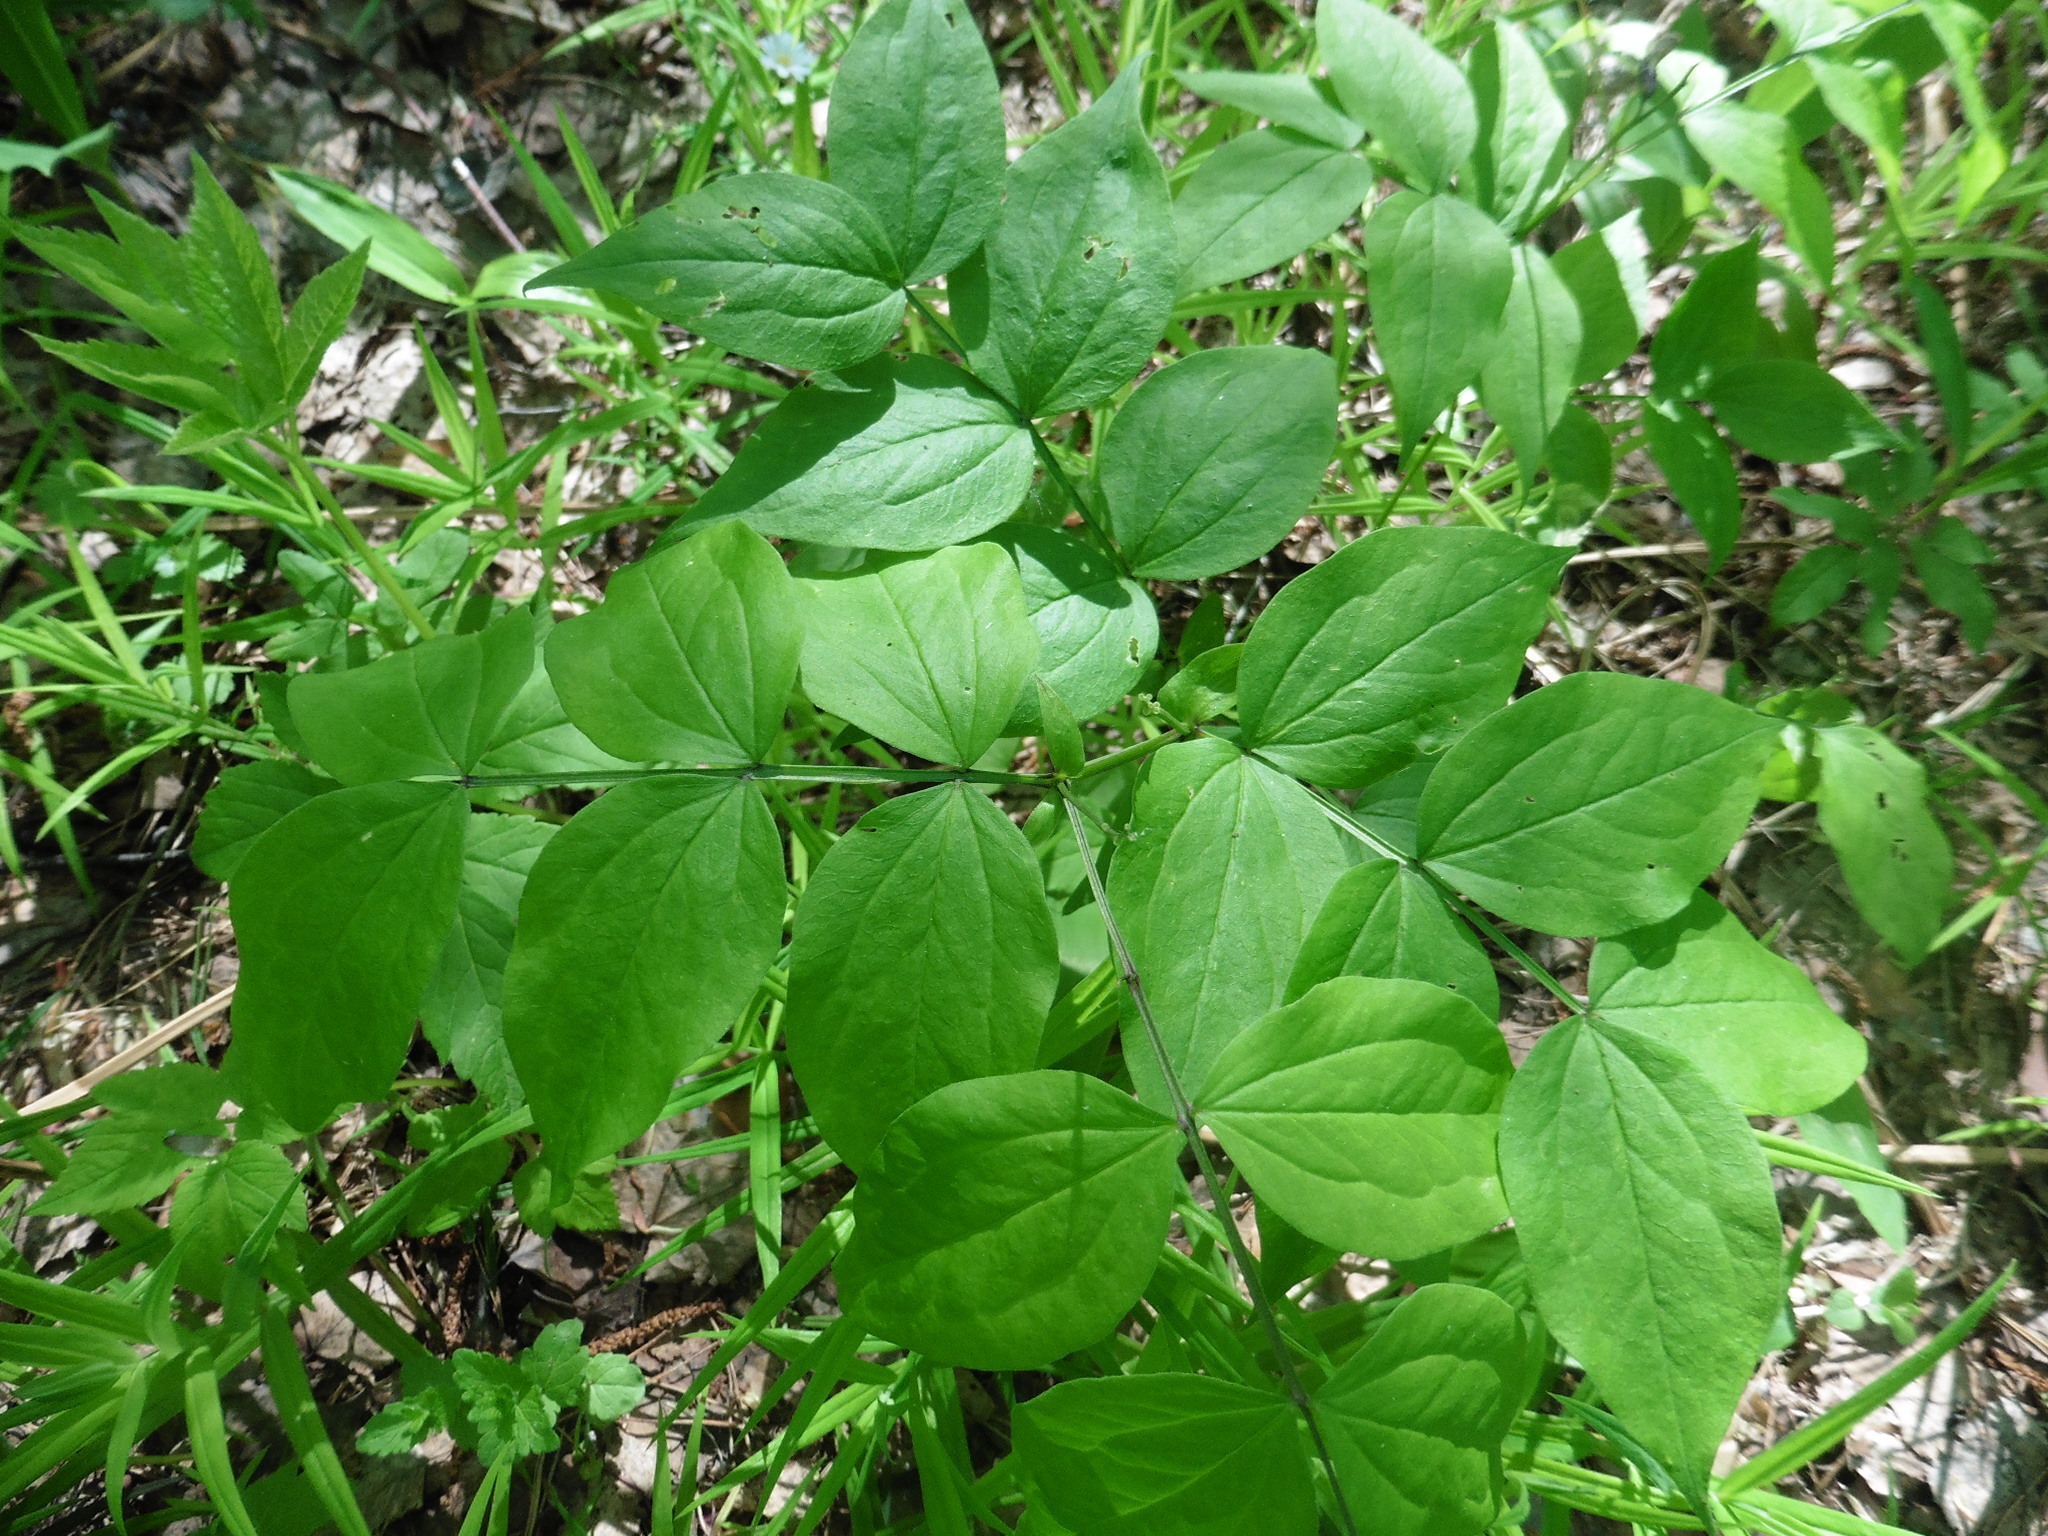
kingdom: Plantae
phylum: Tracheophyta
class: Magnoliopsida
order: Fabales
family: Fabaceae
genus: Lathyrus
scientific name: Lathyrus vernus
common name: Spring pea
